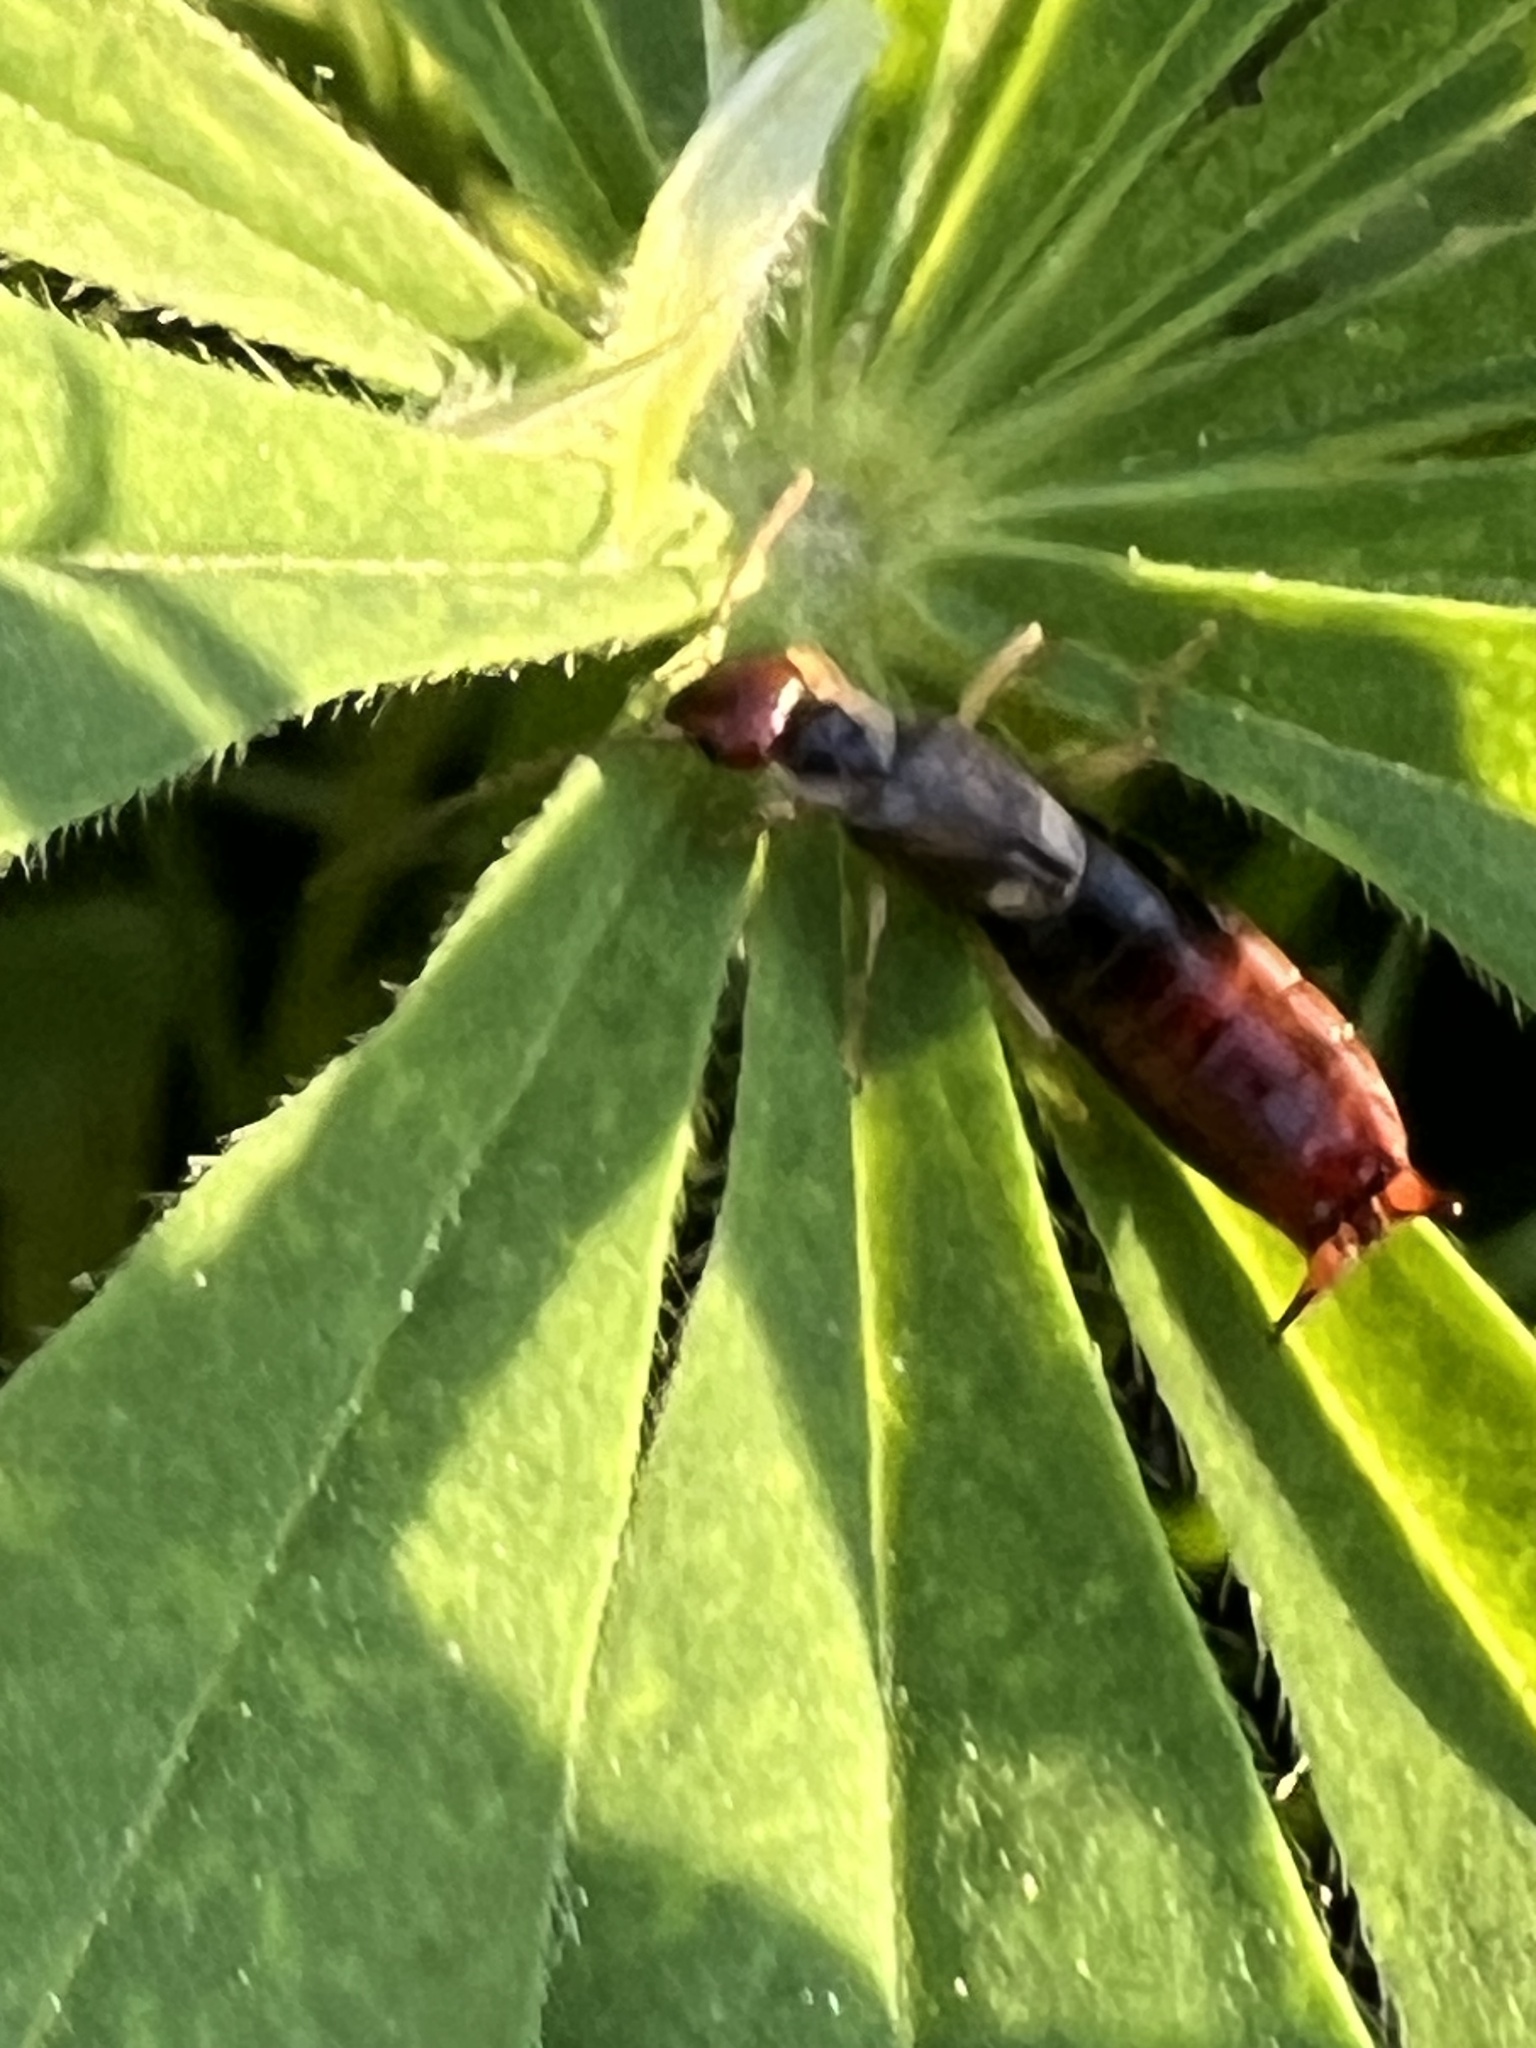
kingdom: Animalia
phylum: Arthropoda
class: Insecta
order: Dermaptera
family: Forficulidae
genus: Forficula
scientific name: Forficula
